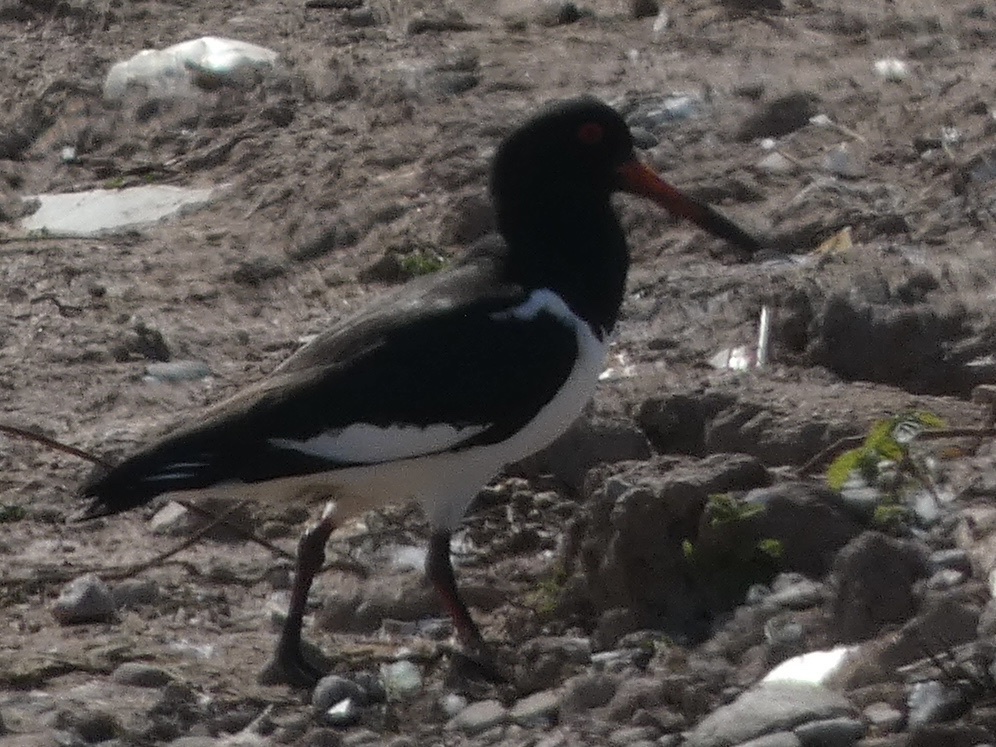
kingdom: Animalia
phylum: Chordata
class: Aves
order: Charadriiformes
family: Haematopodidae
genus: Haematopus
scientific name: Haematopus ostralegus
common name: Eurasian oystercatcher
